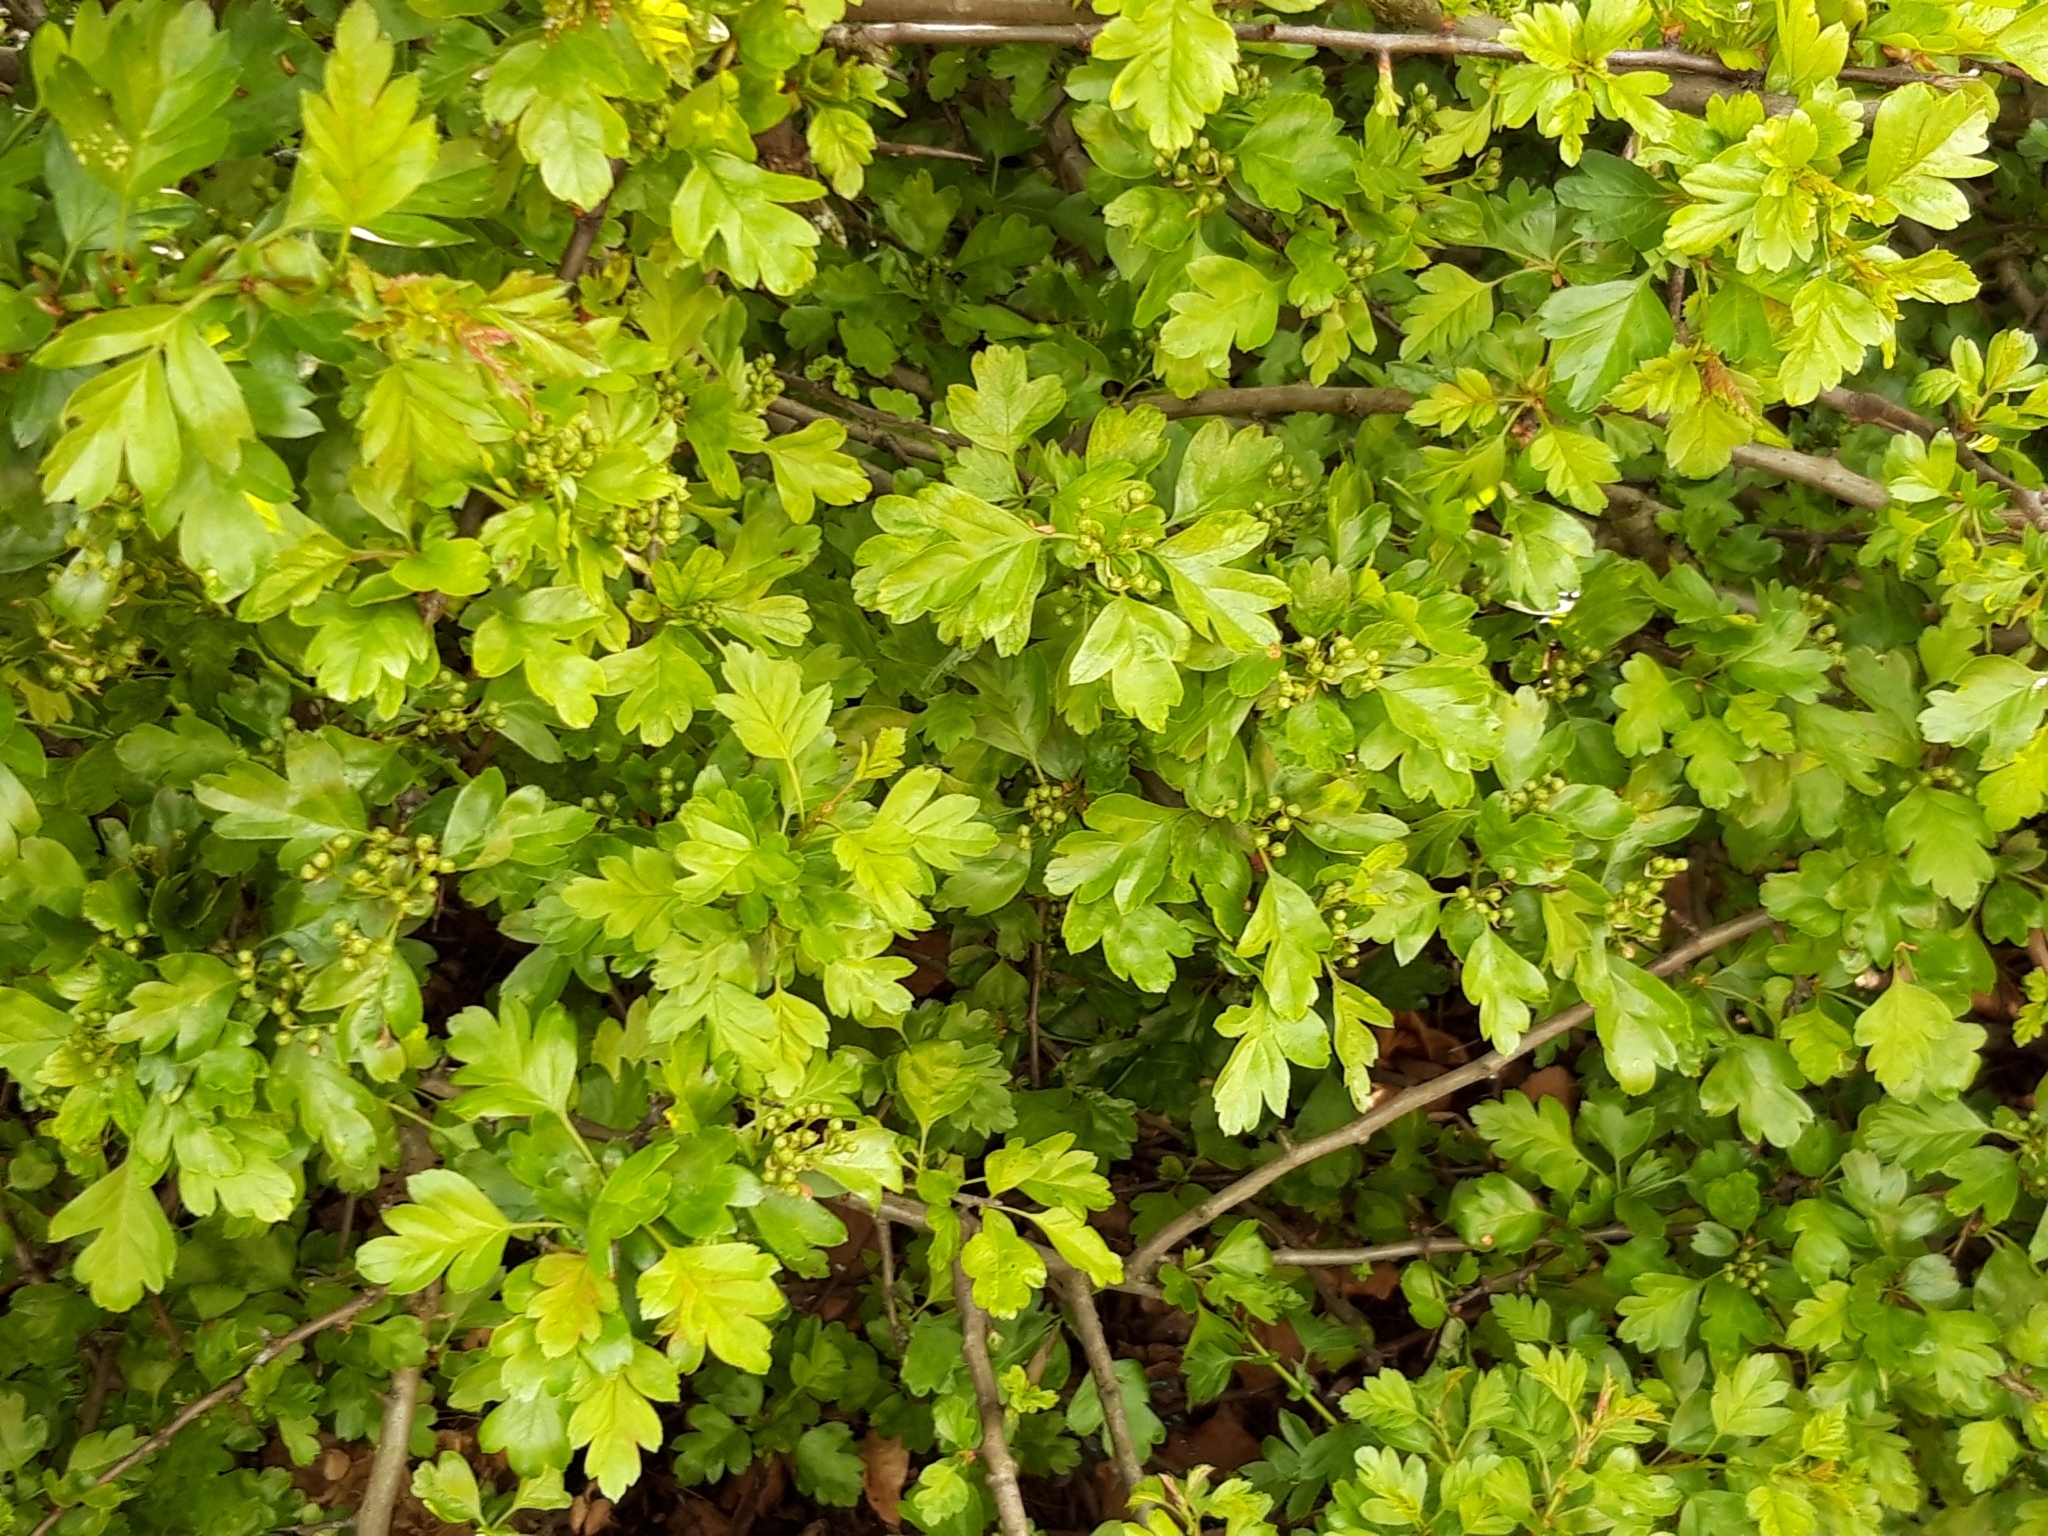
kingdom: Plantae
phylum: Tracheophyta
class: Magnoliopsida
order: Rosales
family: Rosaceae
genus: Crataegus
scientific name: Crataegus monogyna
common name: Hawthorn
